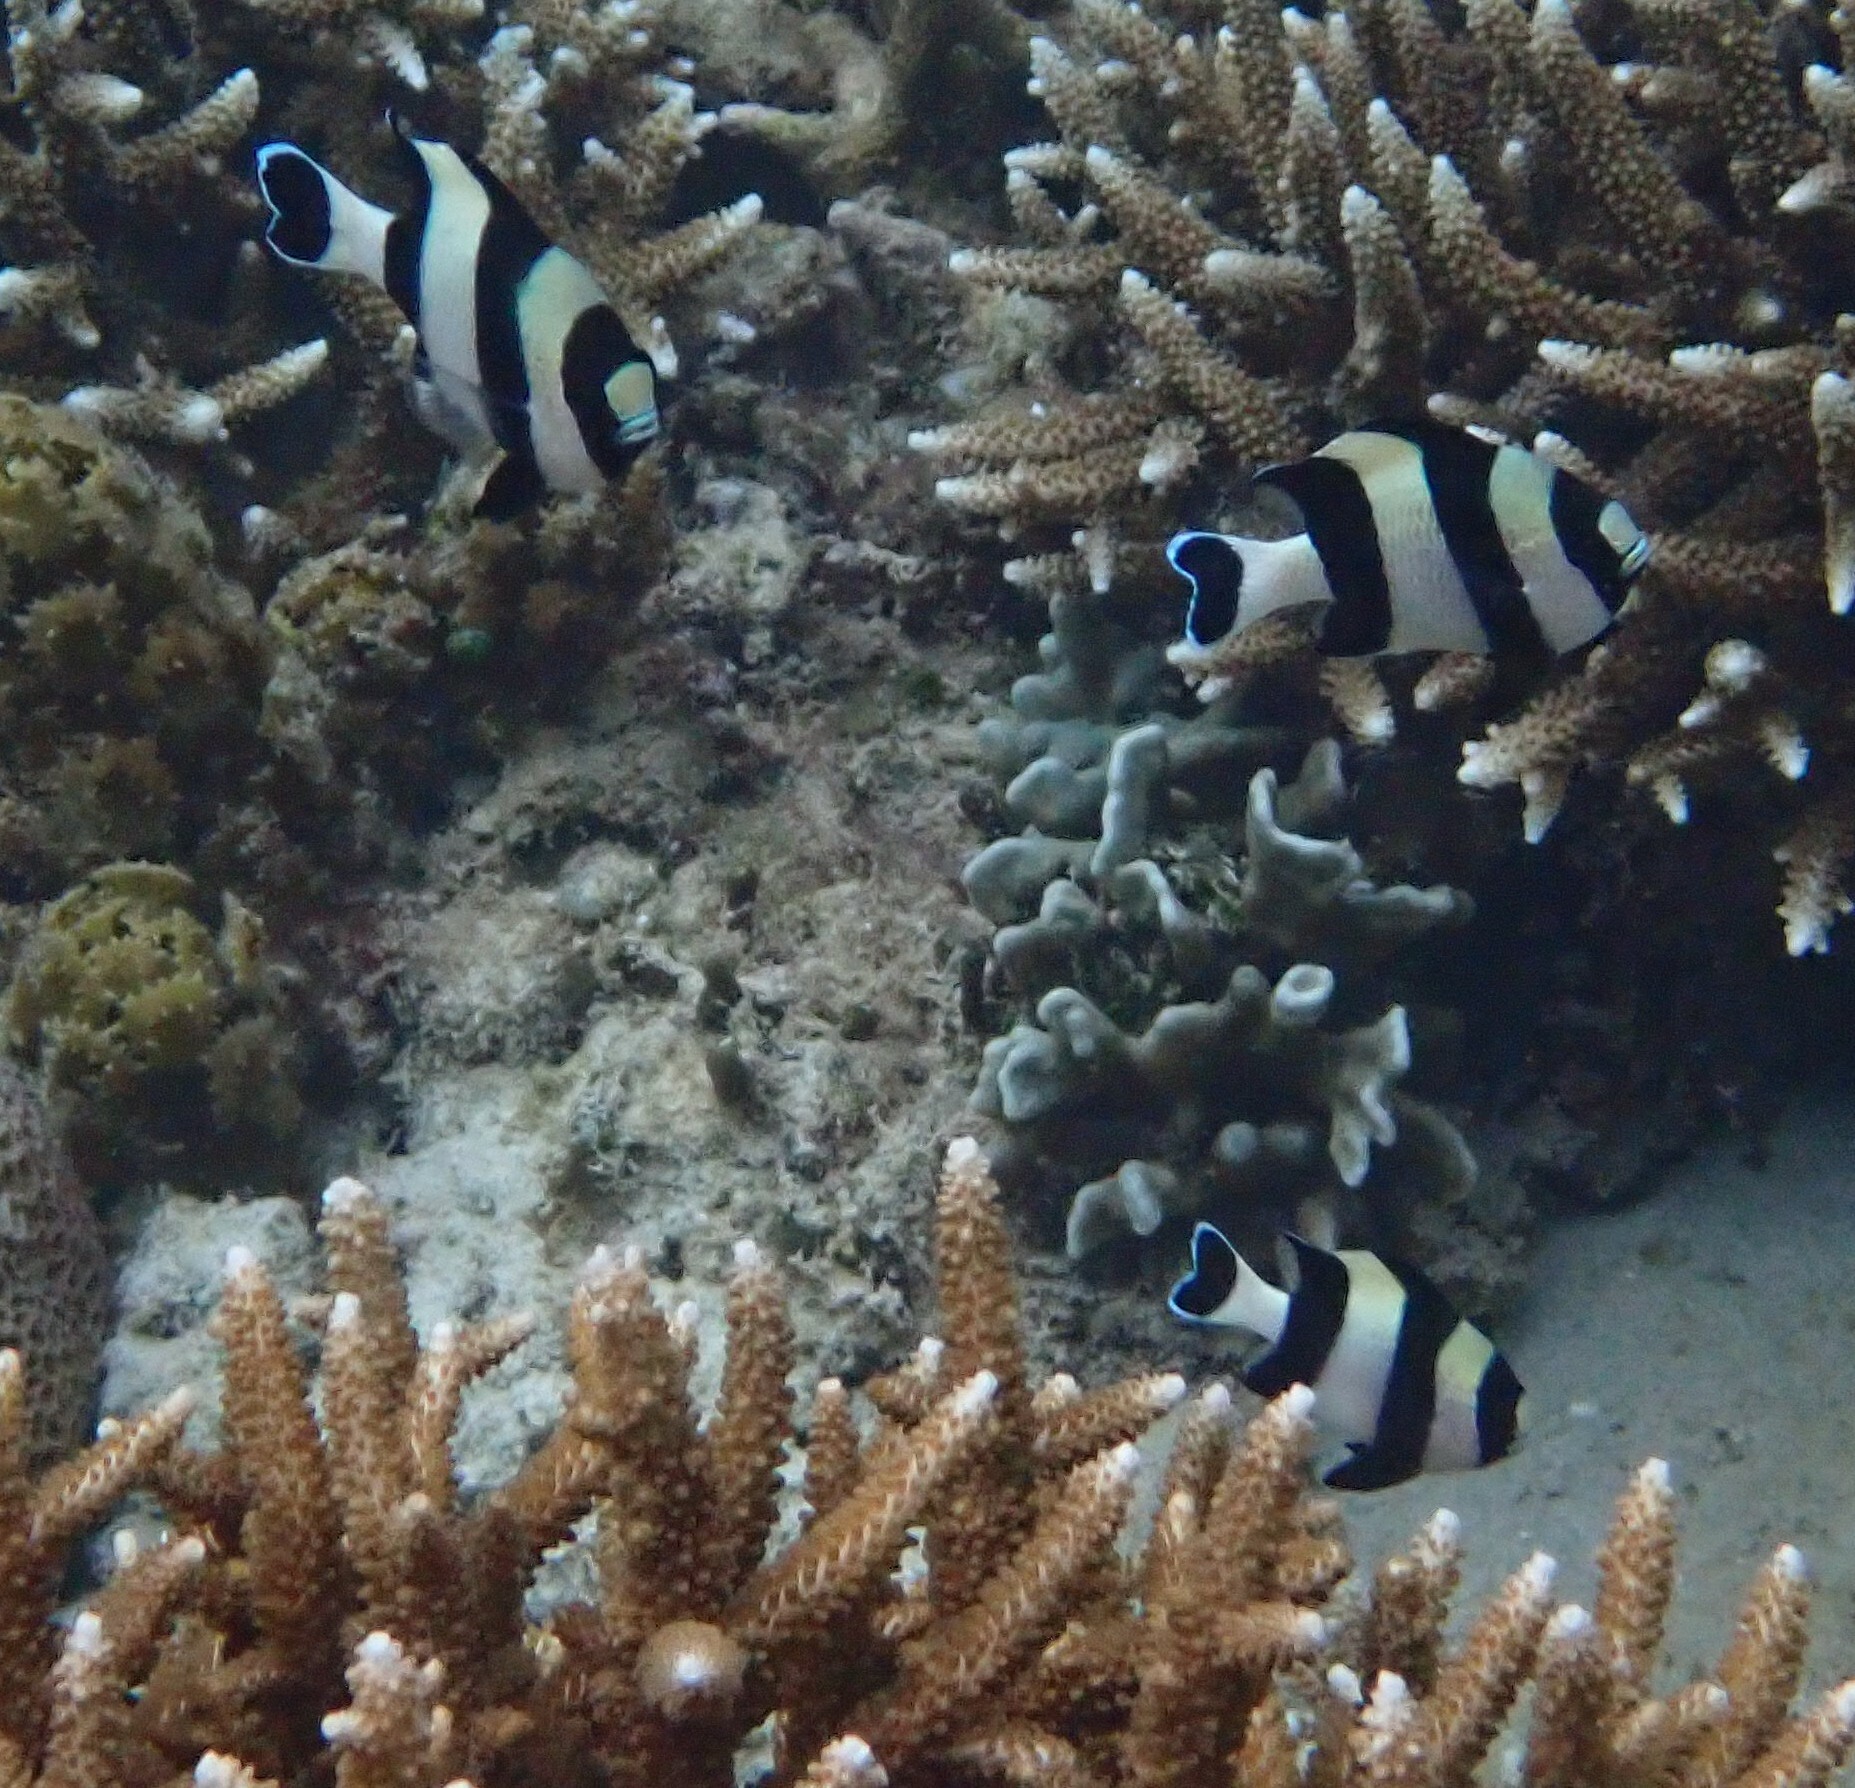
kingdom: Animalia
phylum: Chordata
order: Perciformes
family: Pomacentridae
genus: Dascyllus
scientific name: Dascyllus melanurus
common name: Black-tail dascyllus
